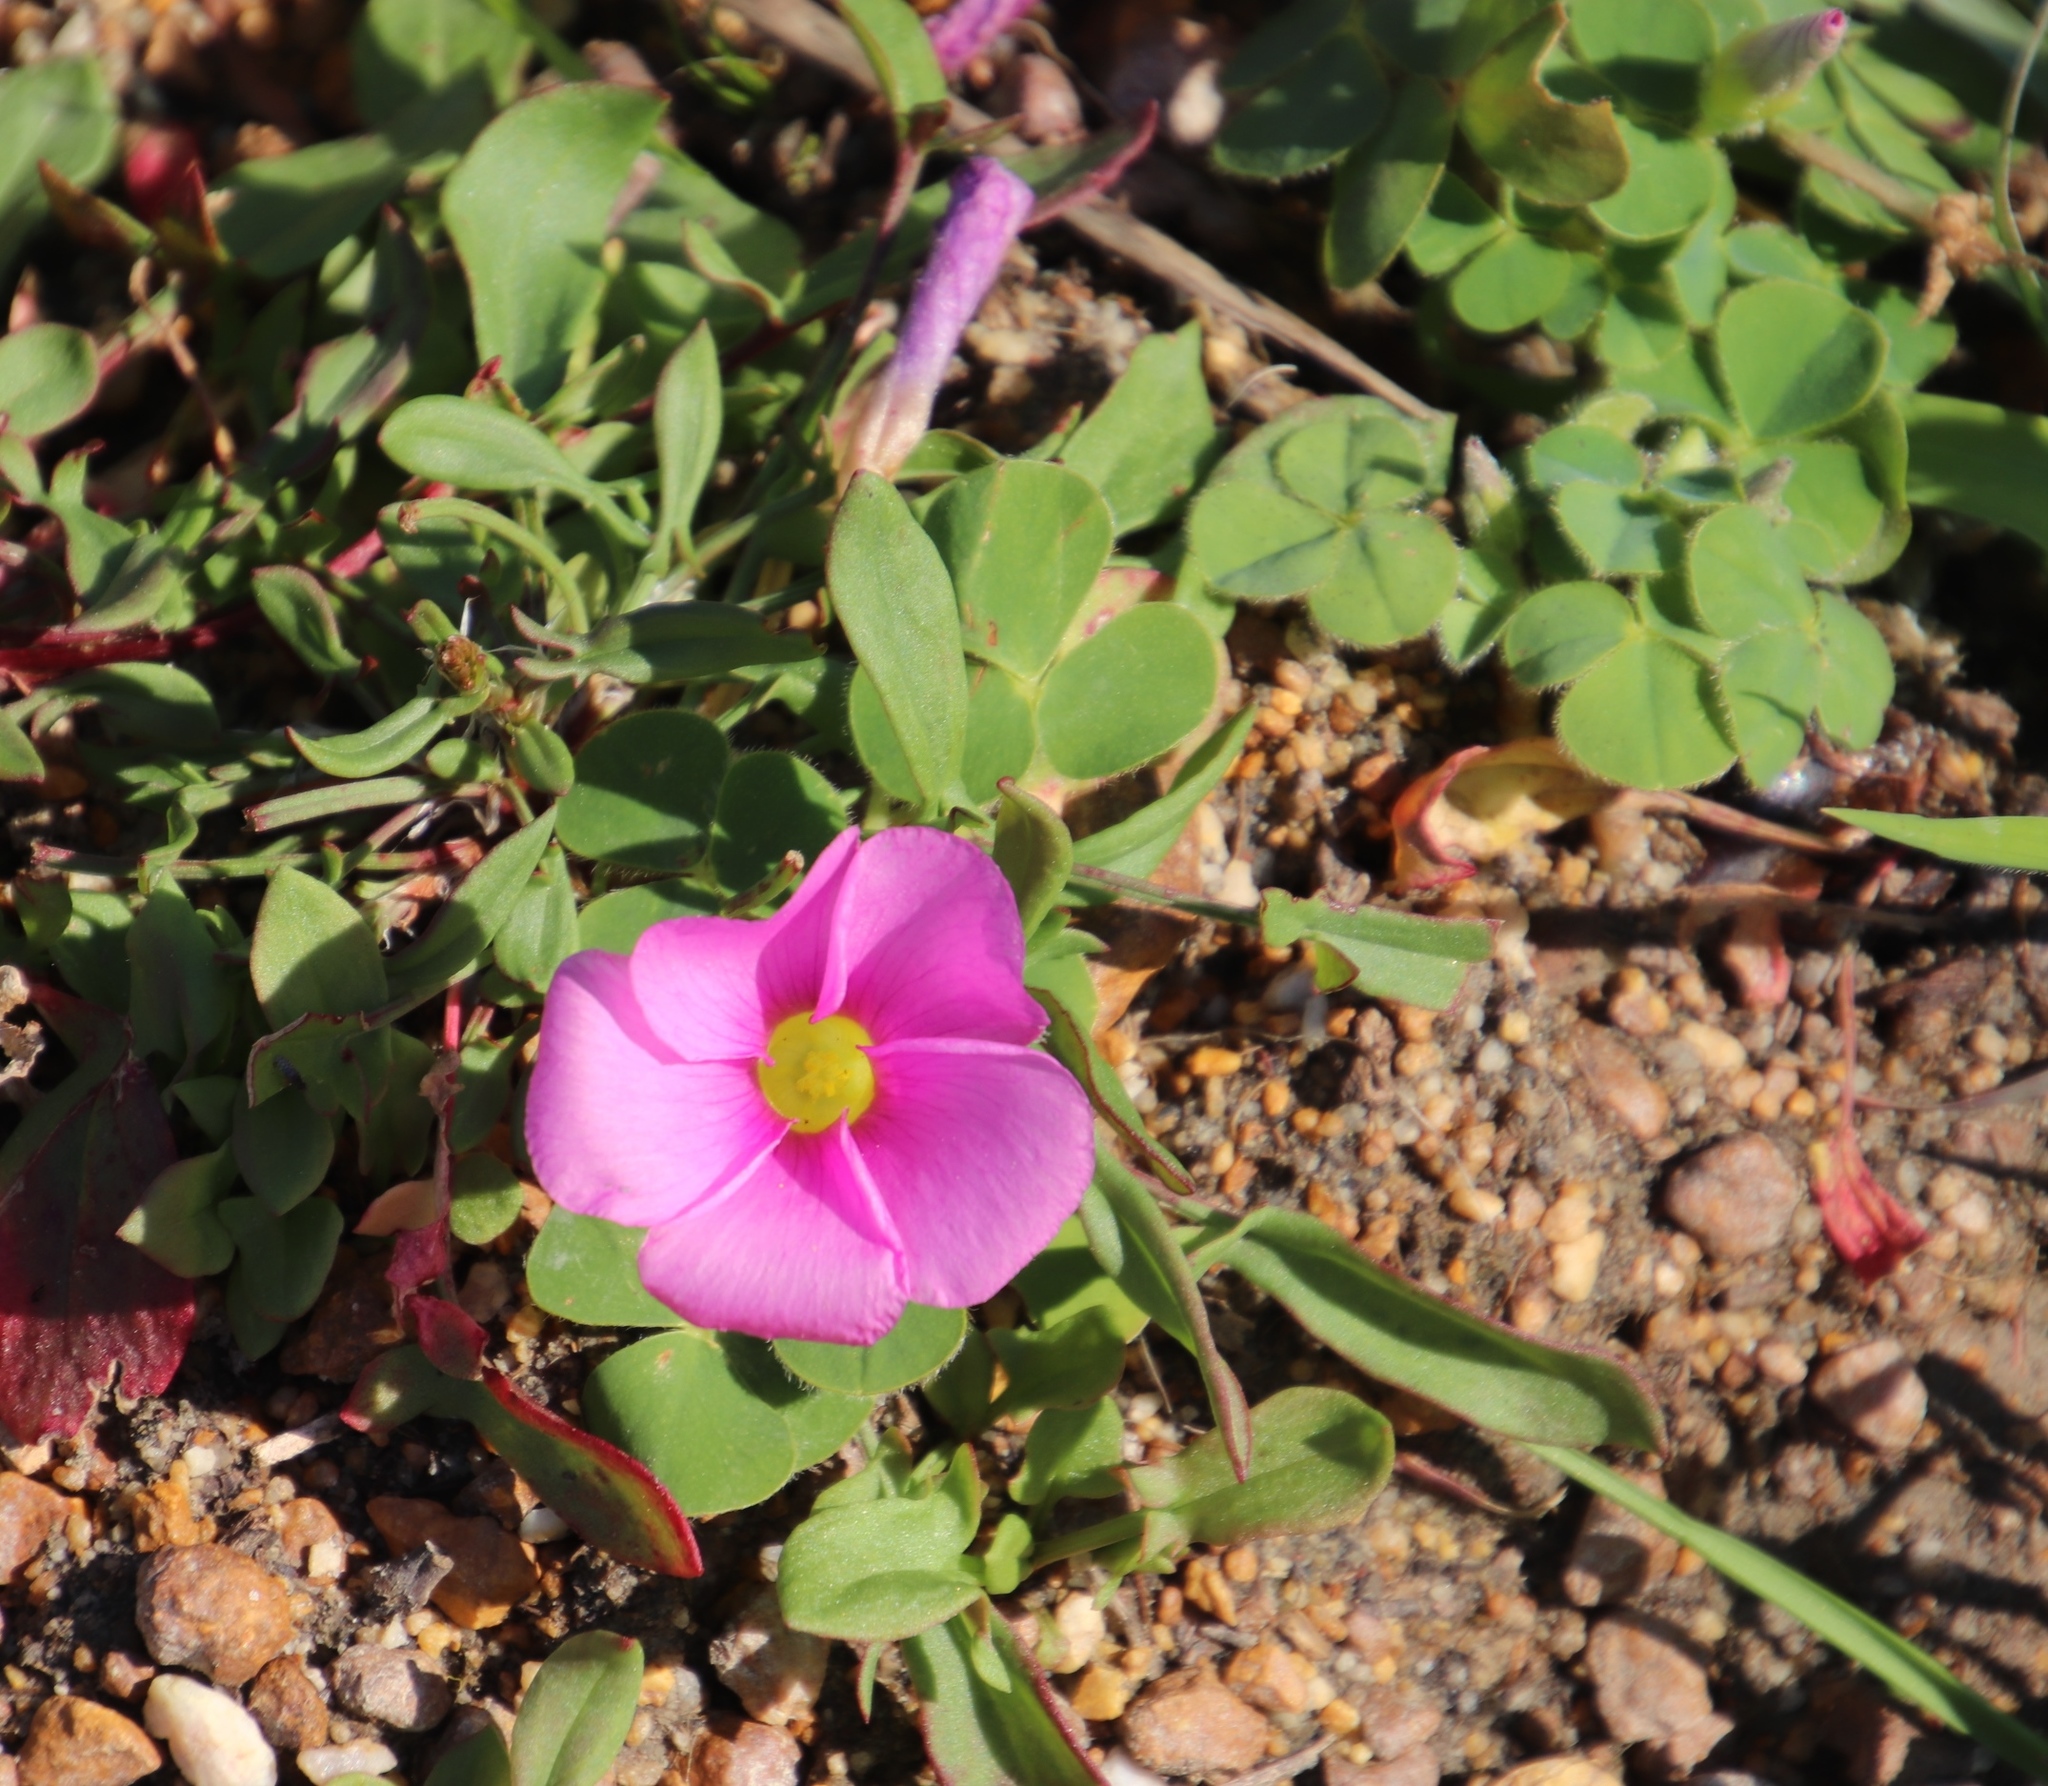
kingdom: Plantae
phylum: Tracheophyta
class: Magnoliopsida
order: Oxalidales
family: Oxalidaceae
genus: Oxalis
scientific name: Oxalis purpurea
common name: Purple woodsorrel
